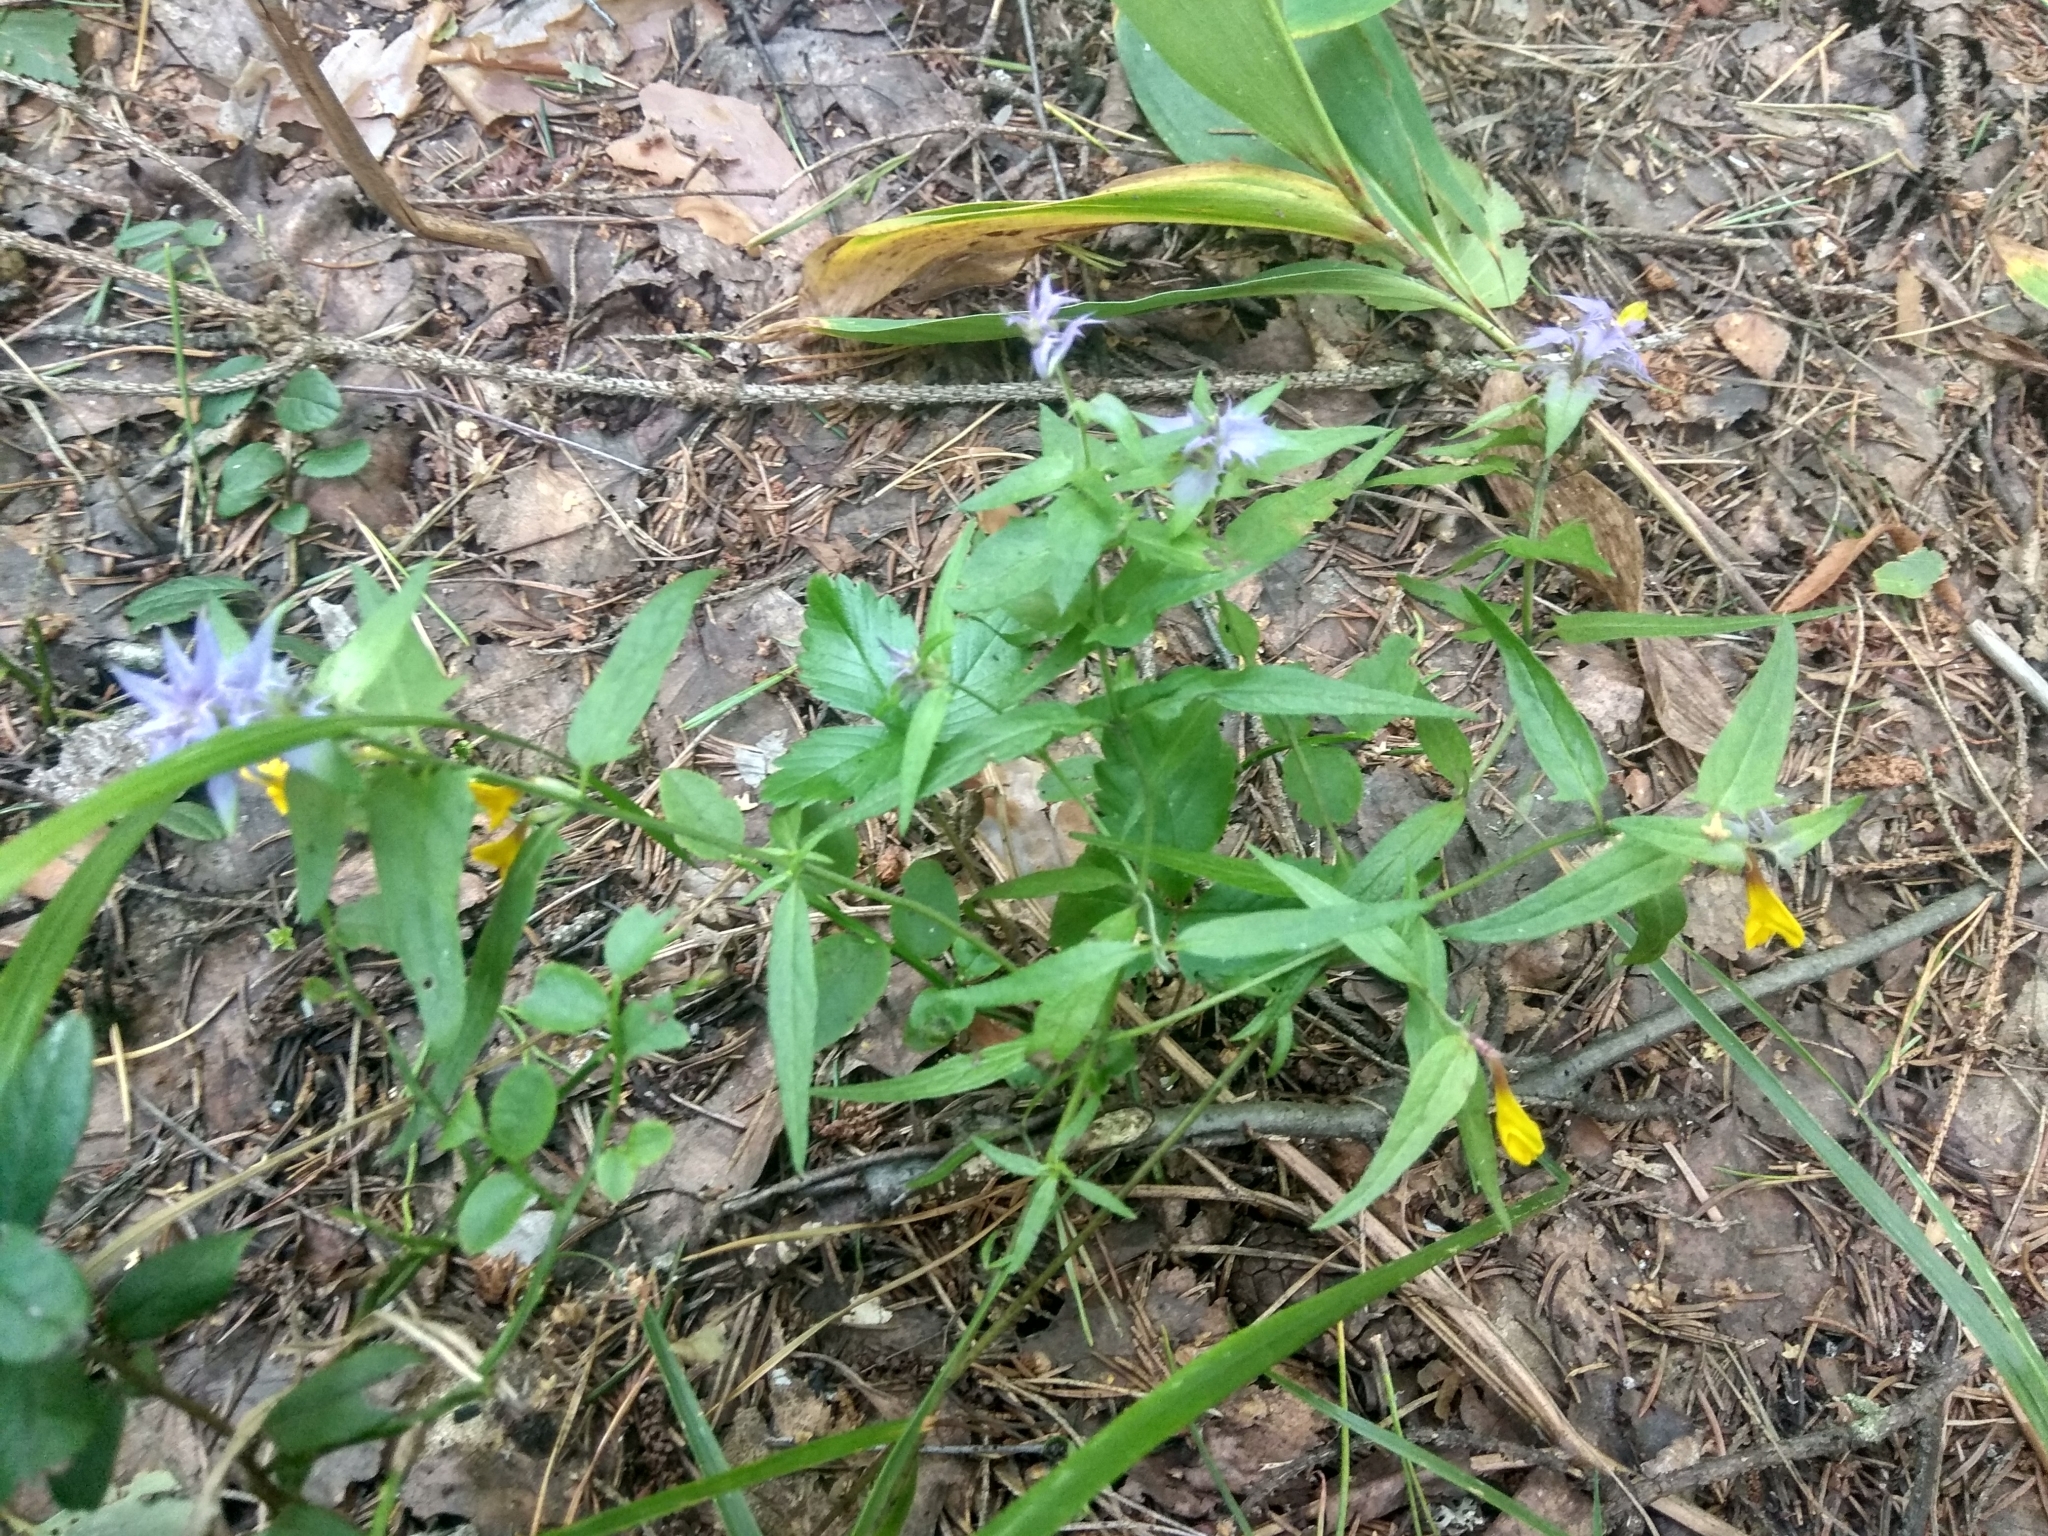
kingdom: Plantae
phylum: Tracheophyta
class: Magnoliopsida
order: Lamiales
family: Orobanchaceae
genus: Melampyrum
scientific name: Melampyrum nemorosum
